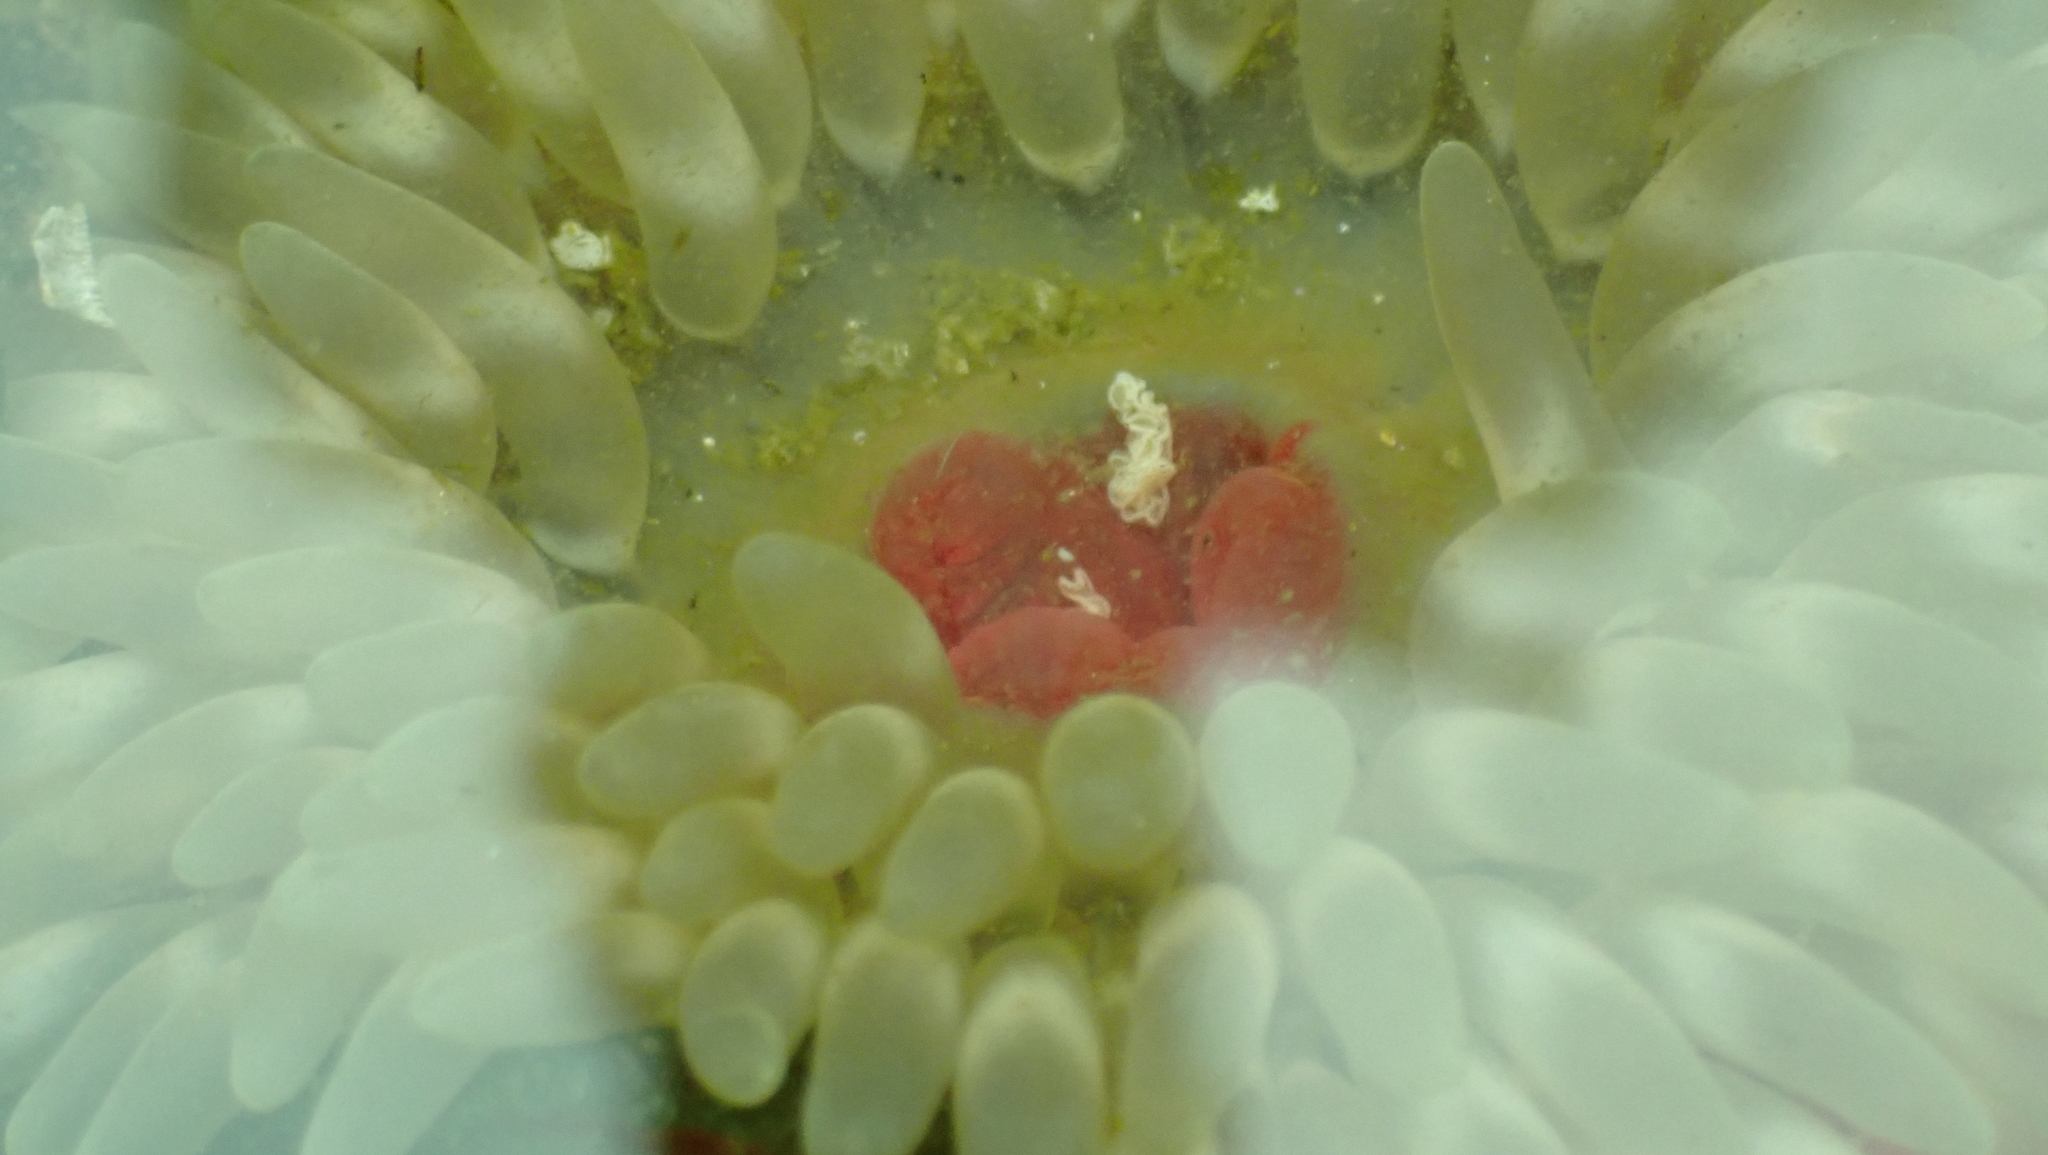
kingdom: Animalia
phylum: Cnidaria
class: Anthozoa
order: Actiniaria
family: Actiniidae
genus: Urticina
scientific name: Urticina clandestina
